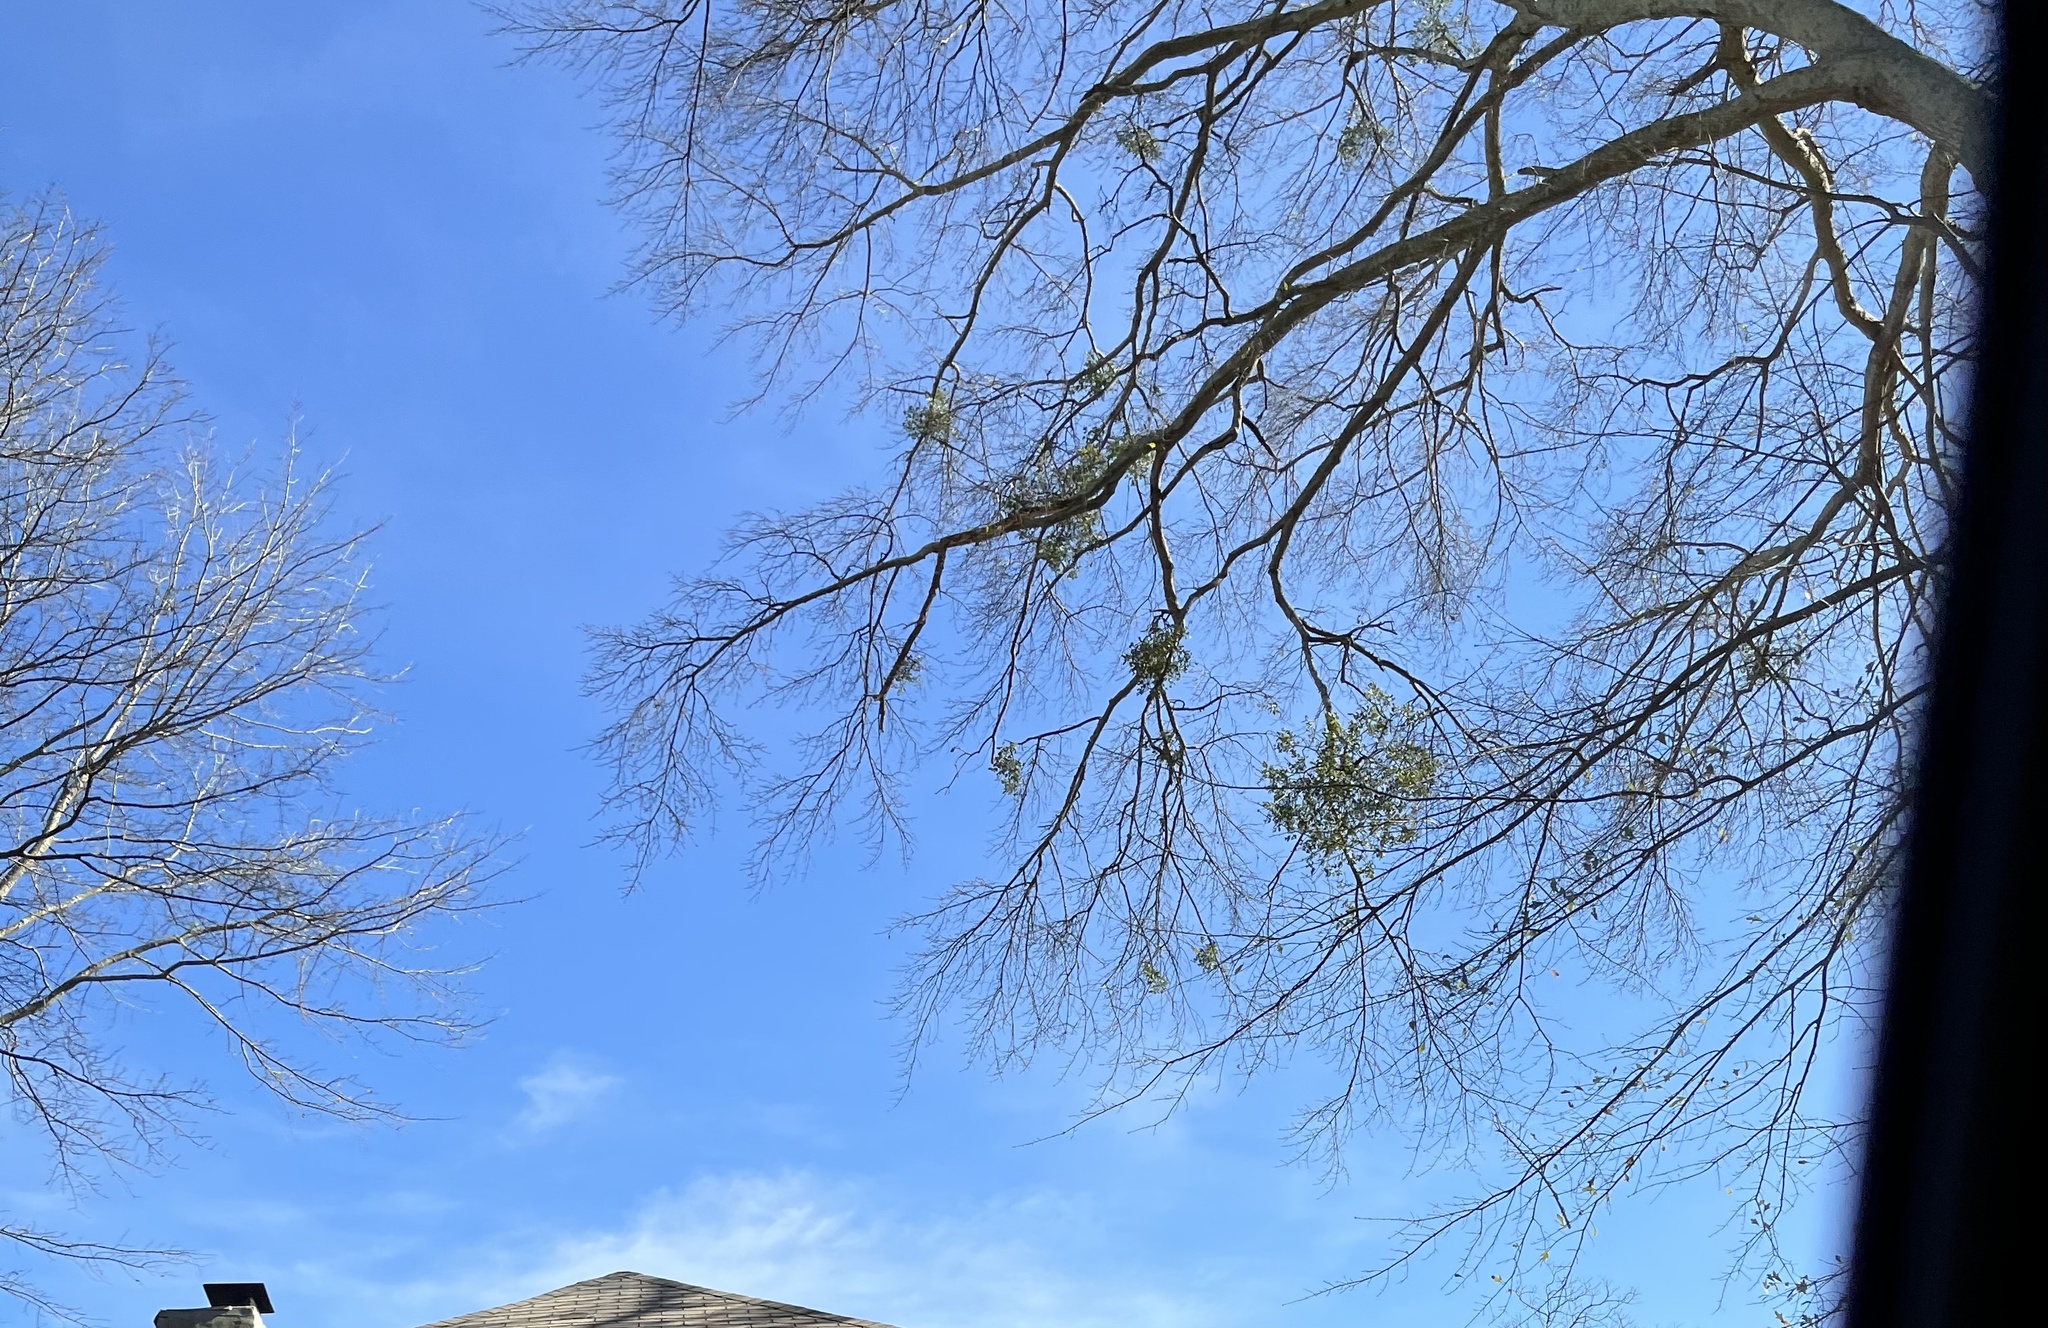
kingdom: Plantae
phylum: Tracheophyta
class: Magnoliopsida
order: Santalales
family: Viscaceae
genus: Phoradendron
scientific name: Phoradendron leucarpum
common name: Pacific mistletoe
